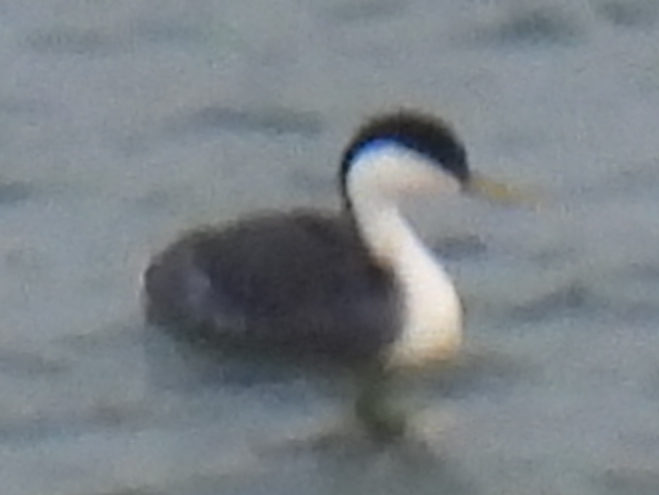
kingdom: Animalia
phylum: Chordata
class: Aves
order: Podicipediformes
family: Podicipedidae
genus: Aechmophorus
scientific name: Aechmophorus occidentalis
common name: Western grebe
